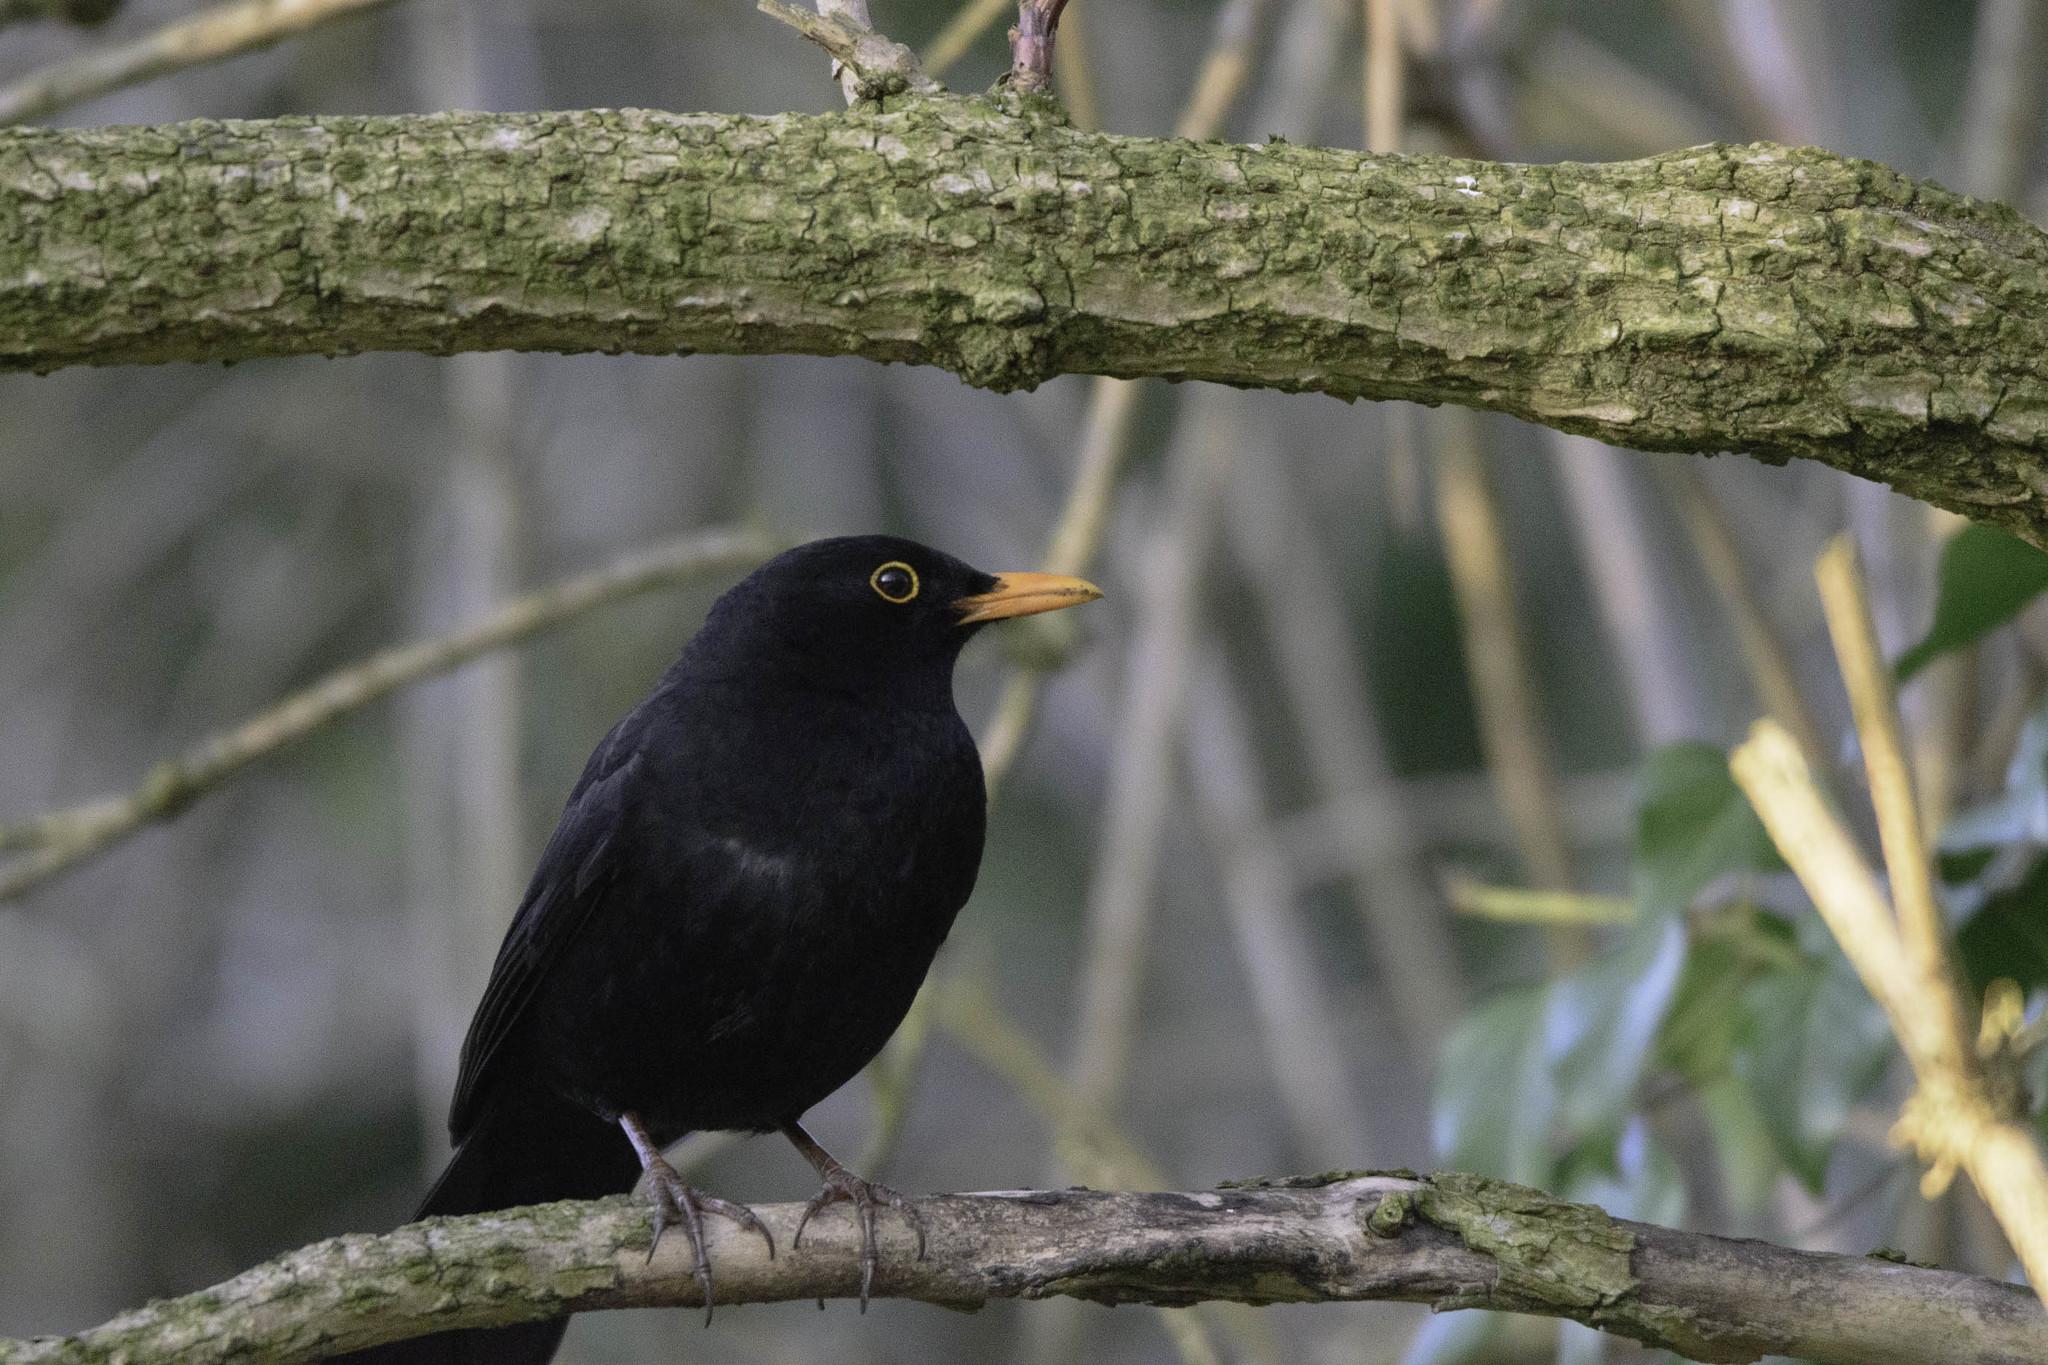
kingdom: Animalia
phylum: Chordata
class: Aves
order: Passeriformes
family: Turdidae
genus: Turdus
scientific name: Turdus merula
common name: Common blackbird
